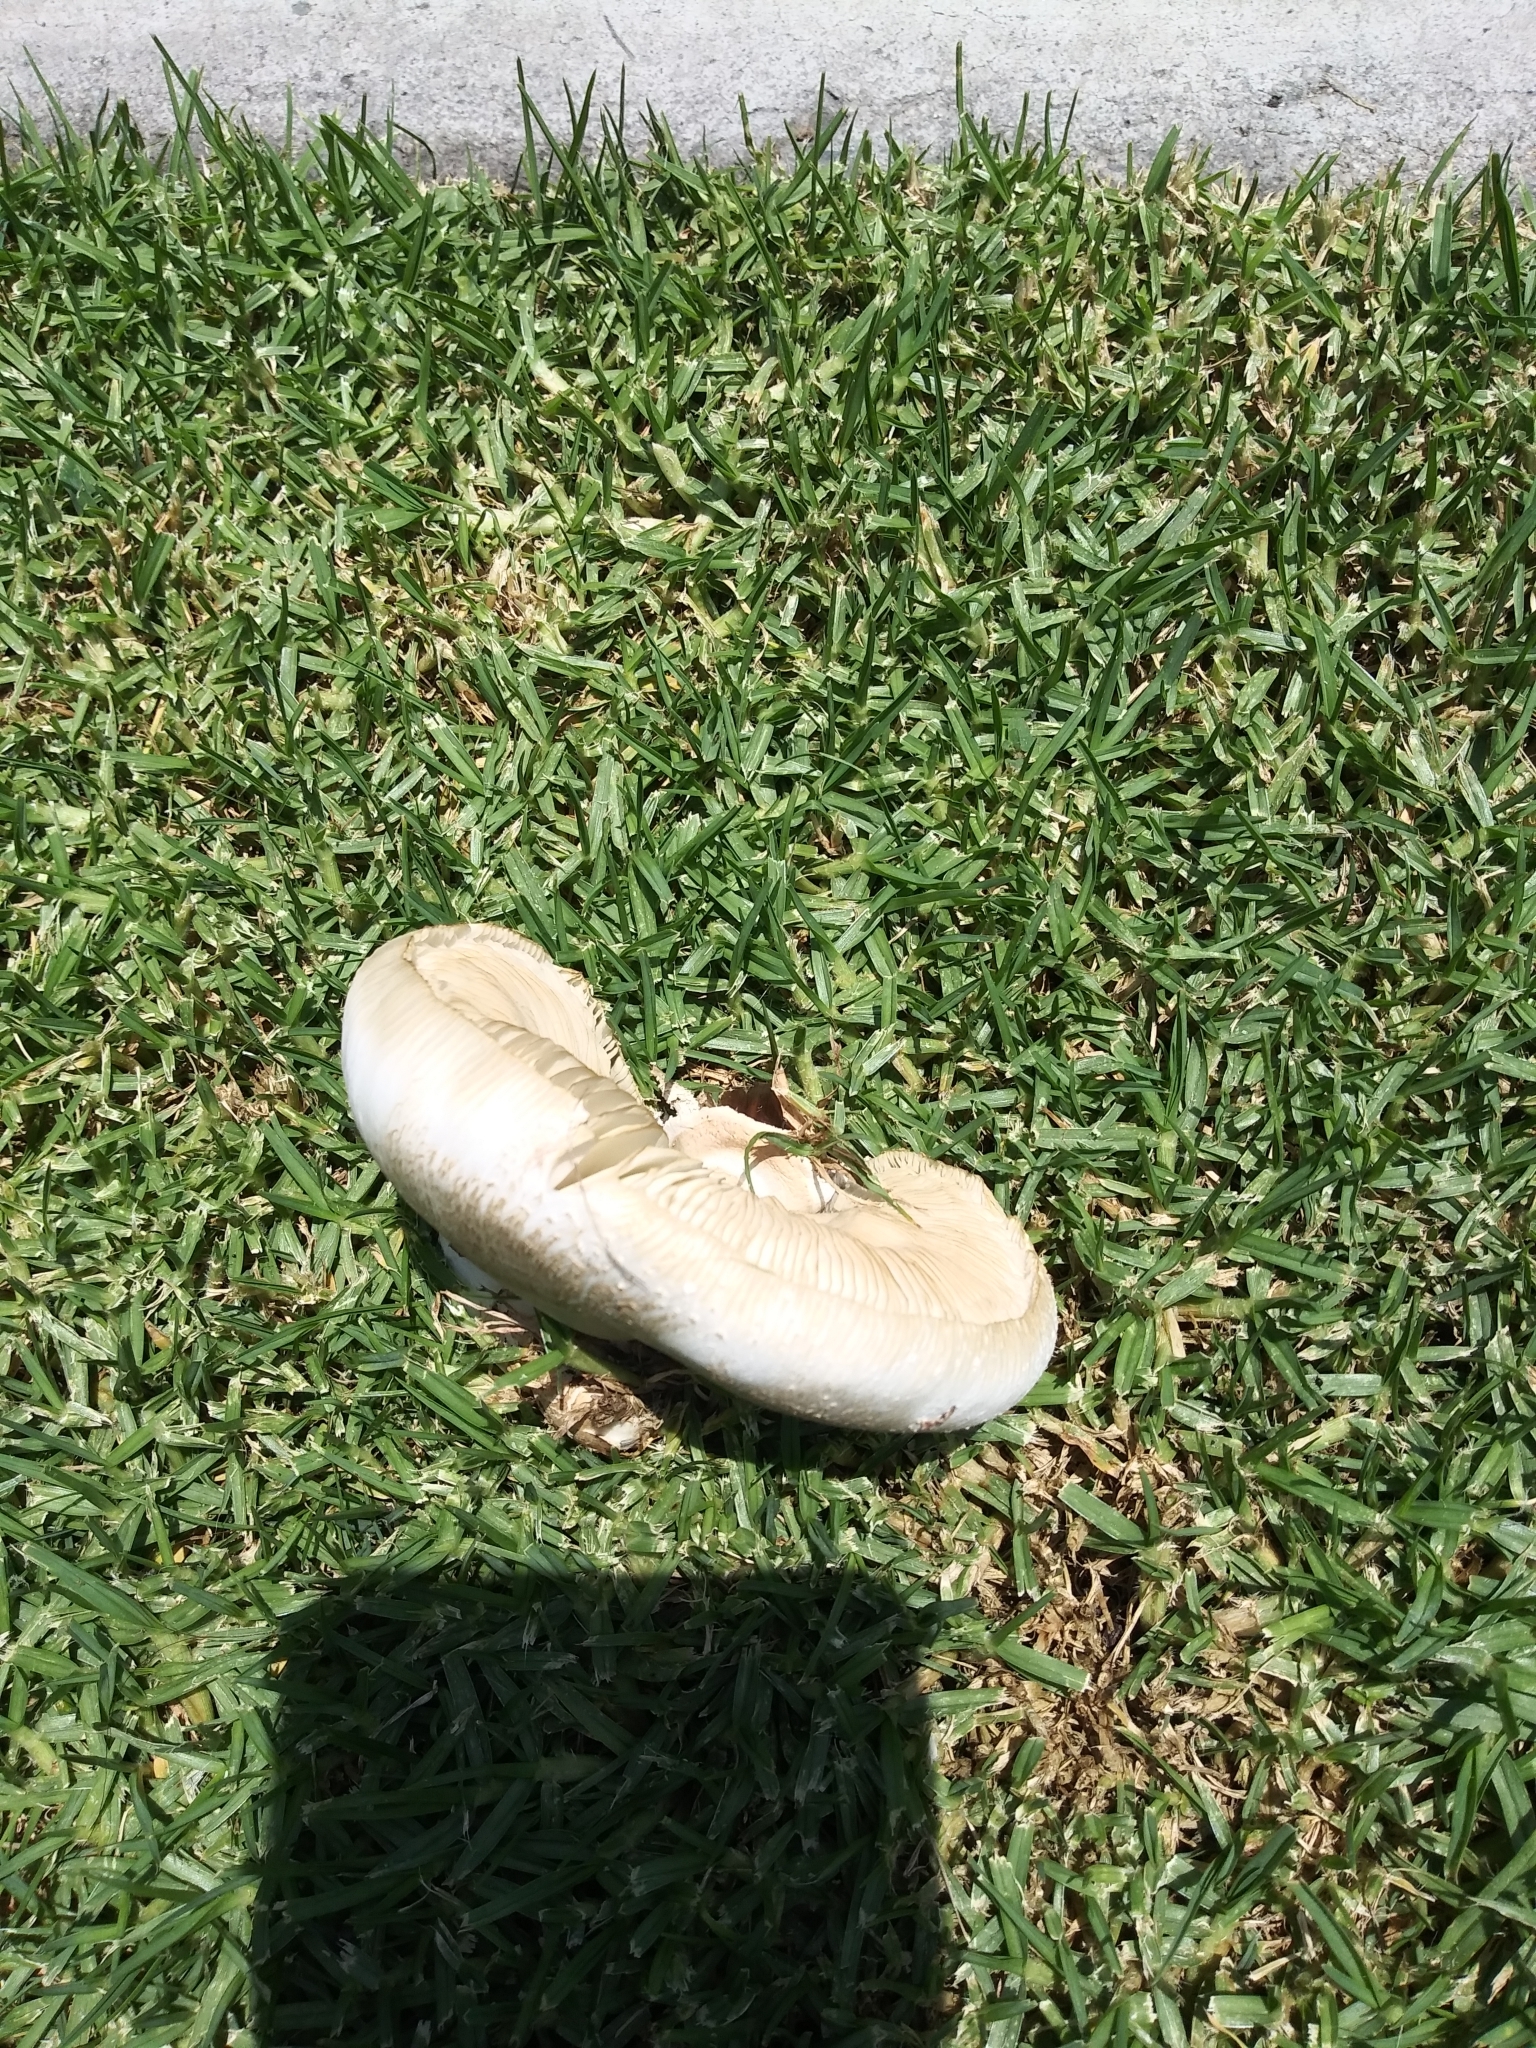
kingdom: Fungi
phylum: Basidiomycota
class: Agaricomycetes
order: Agaricales
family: Agaricaceae
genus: Chlorophyllum
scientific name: Chlorophyllum molybdites
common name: False parasol
